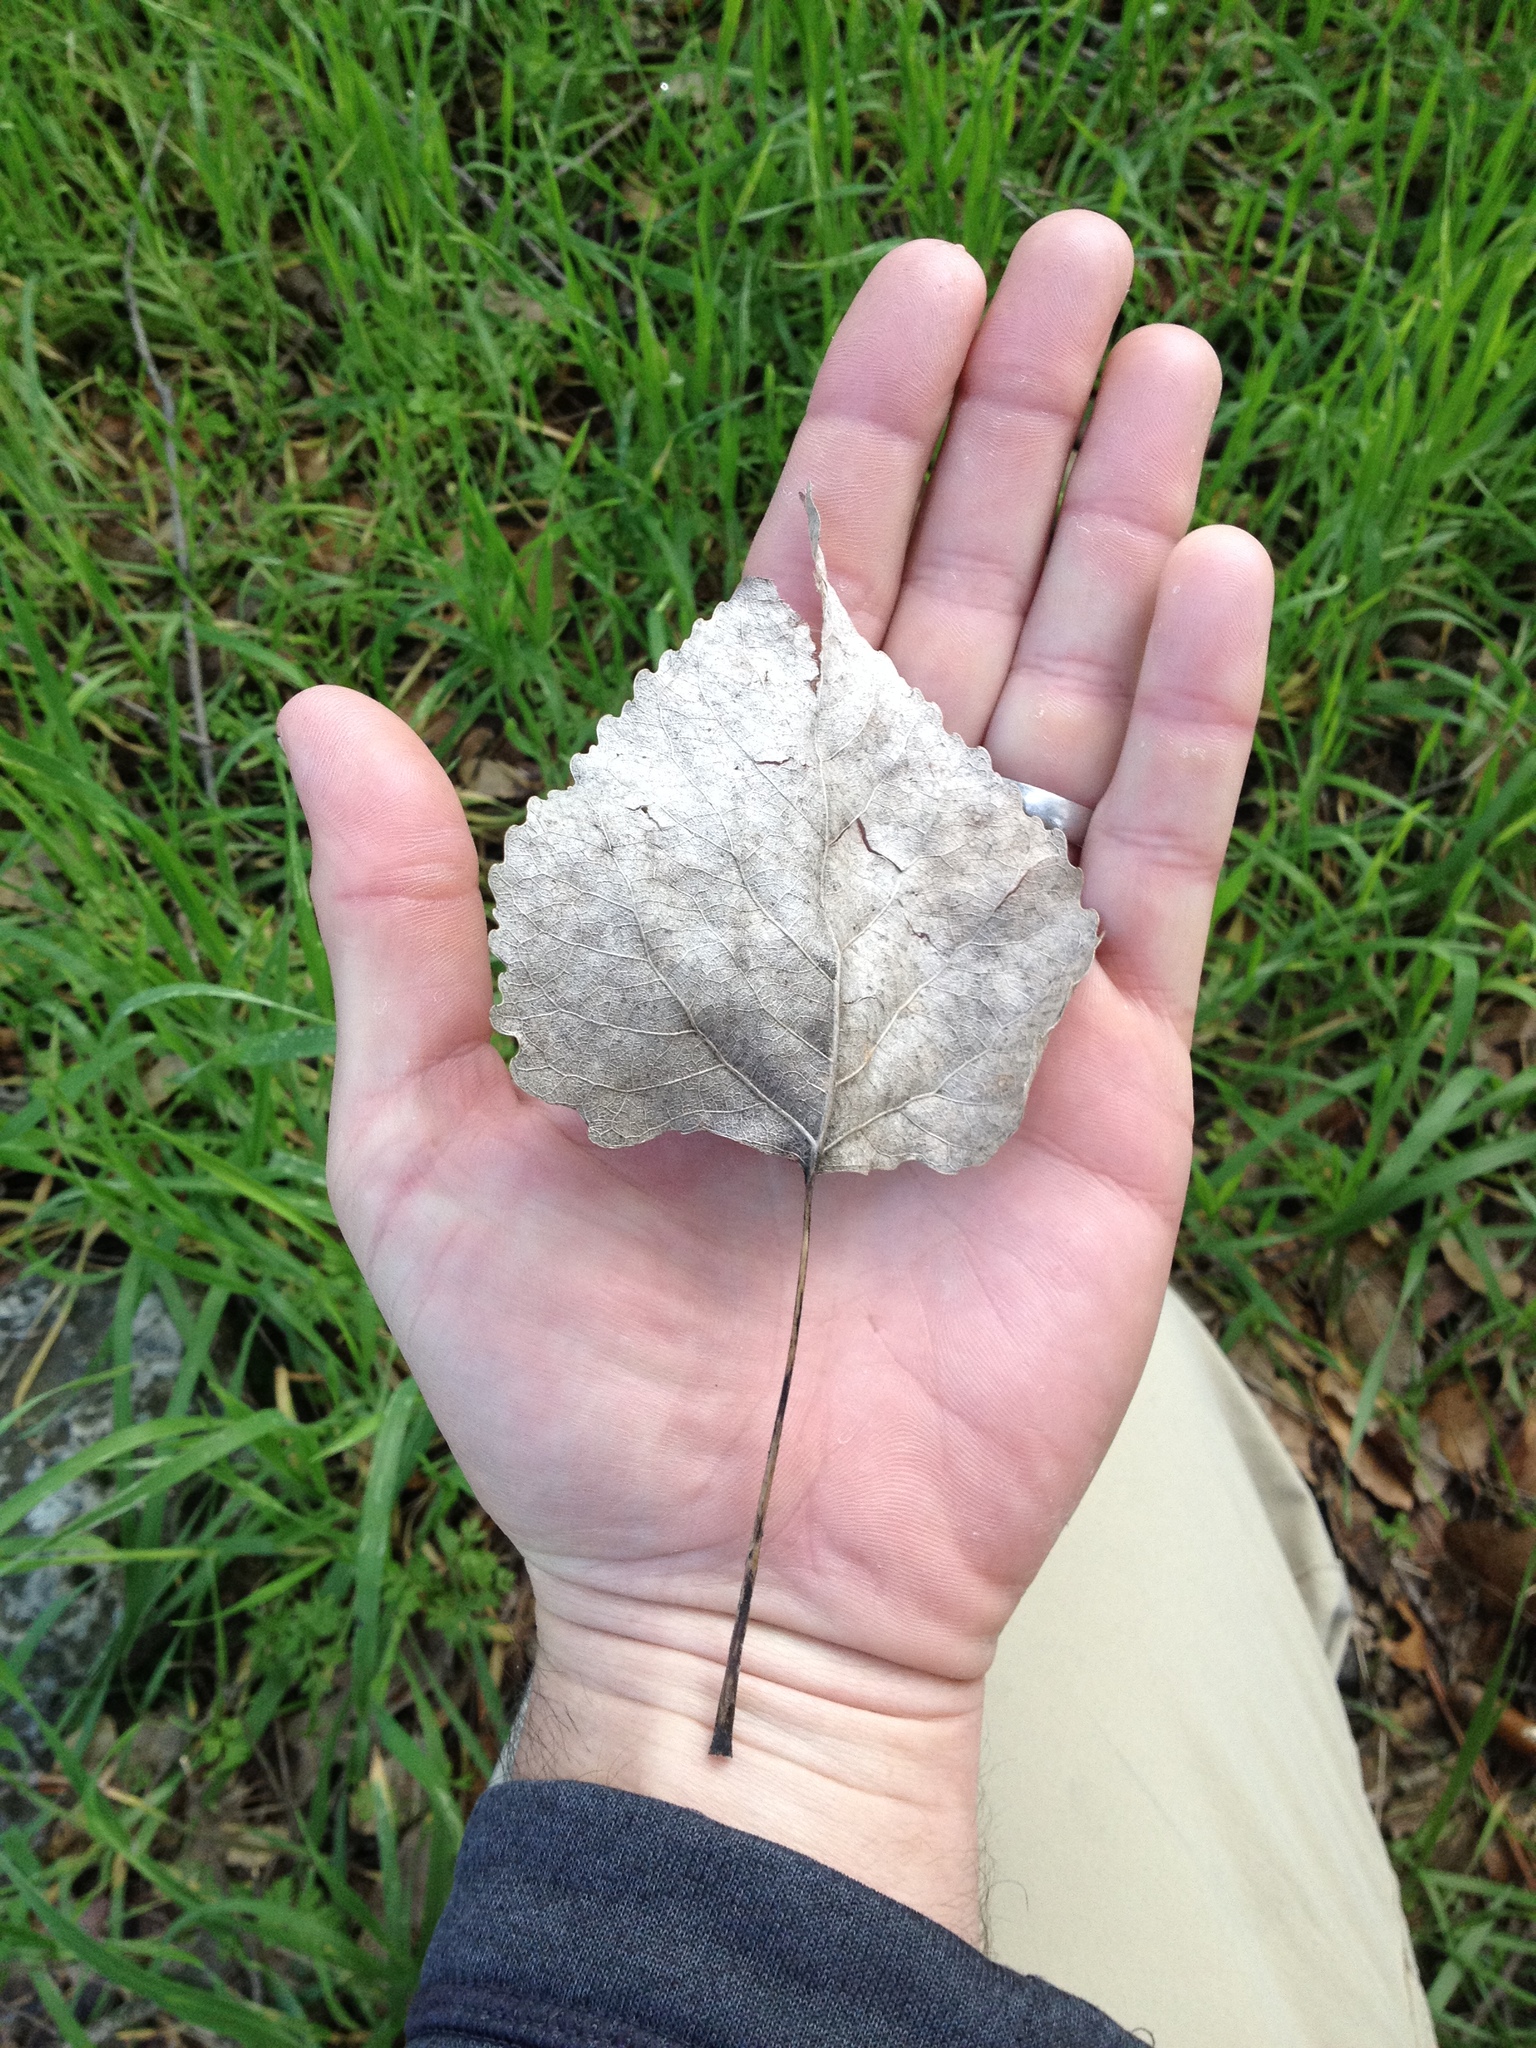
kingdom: Plantae
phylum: Tracheophyta
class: Magnoliopsida
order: Malpighiales
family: Salicaceae
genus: Populus
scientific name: Populus fremontii
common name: Fremont's cottonwood
